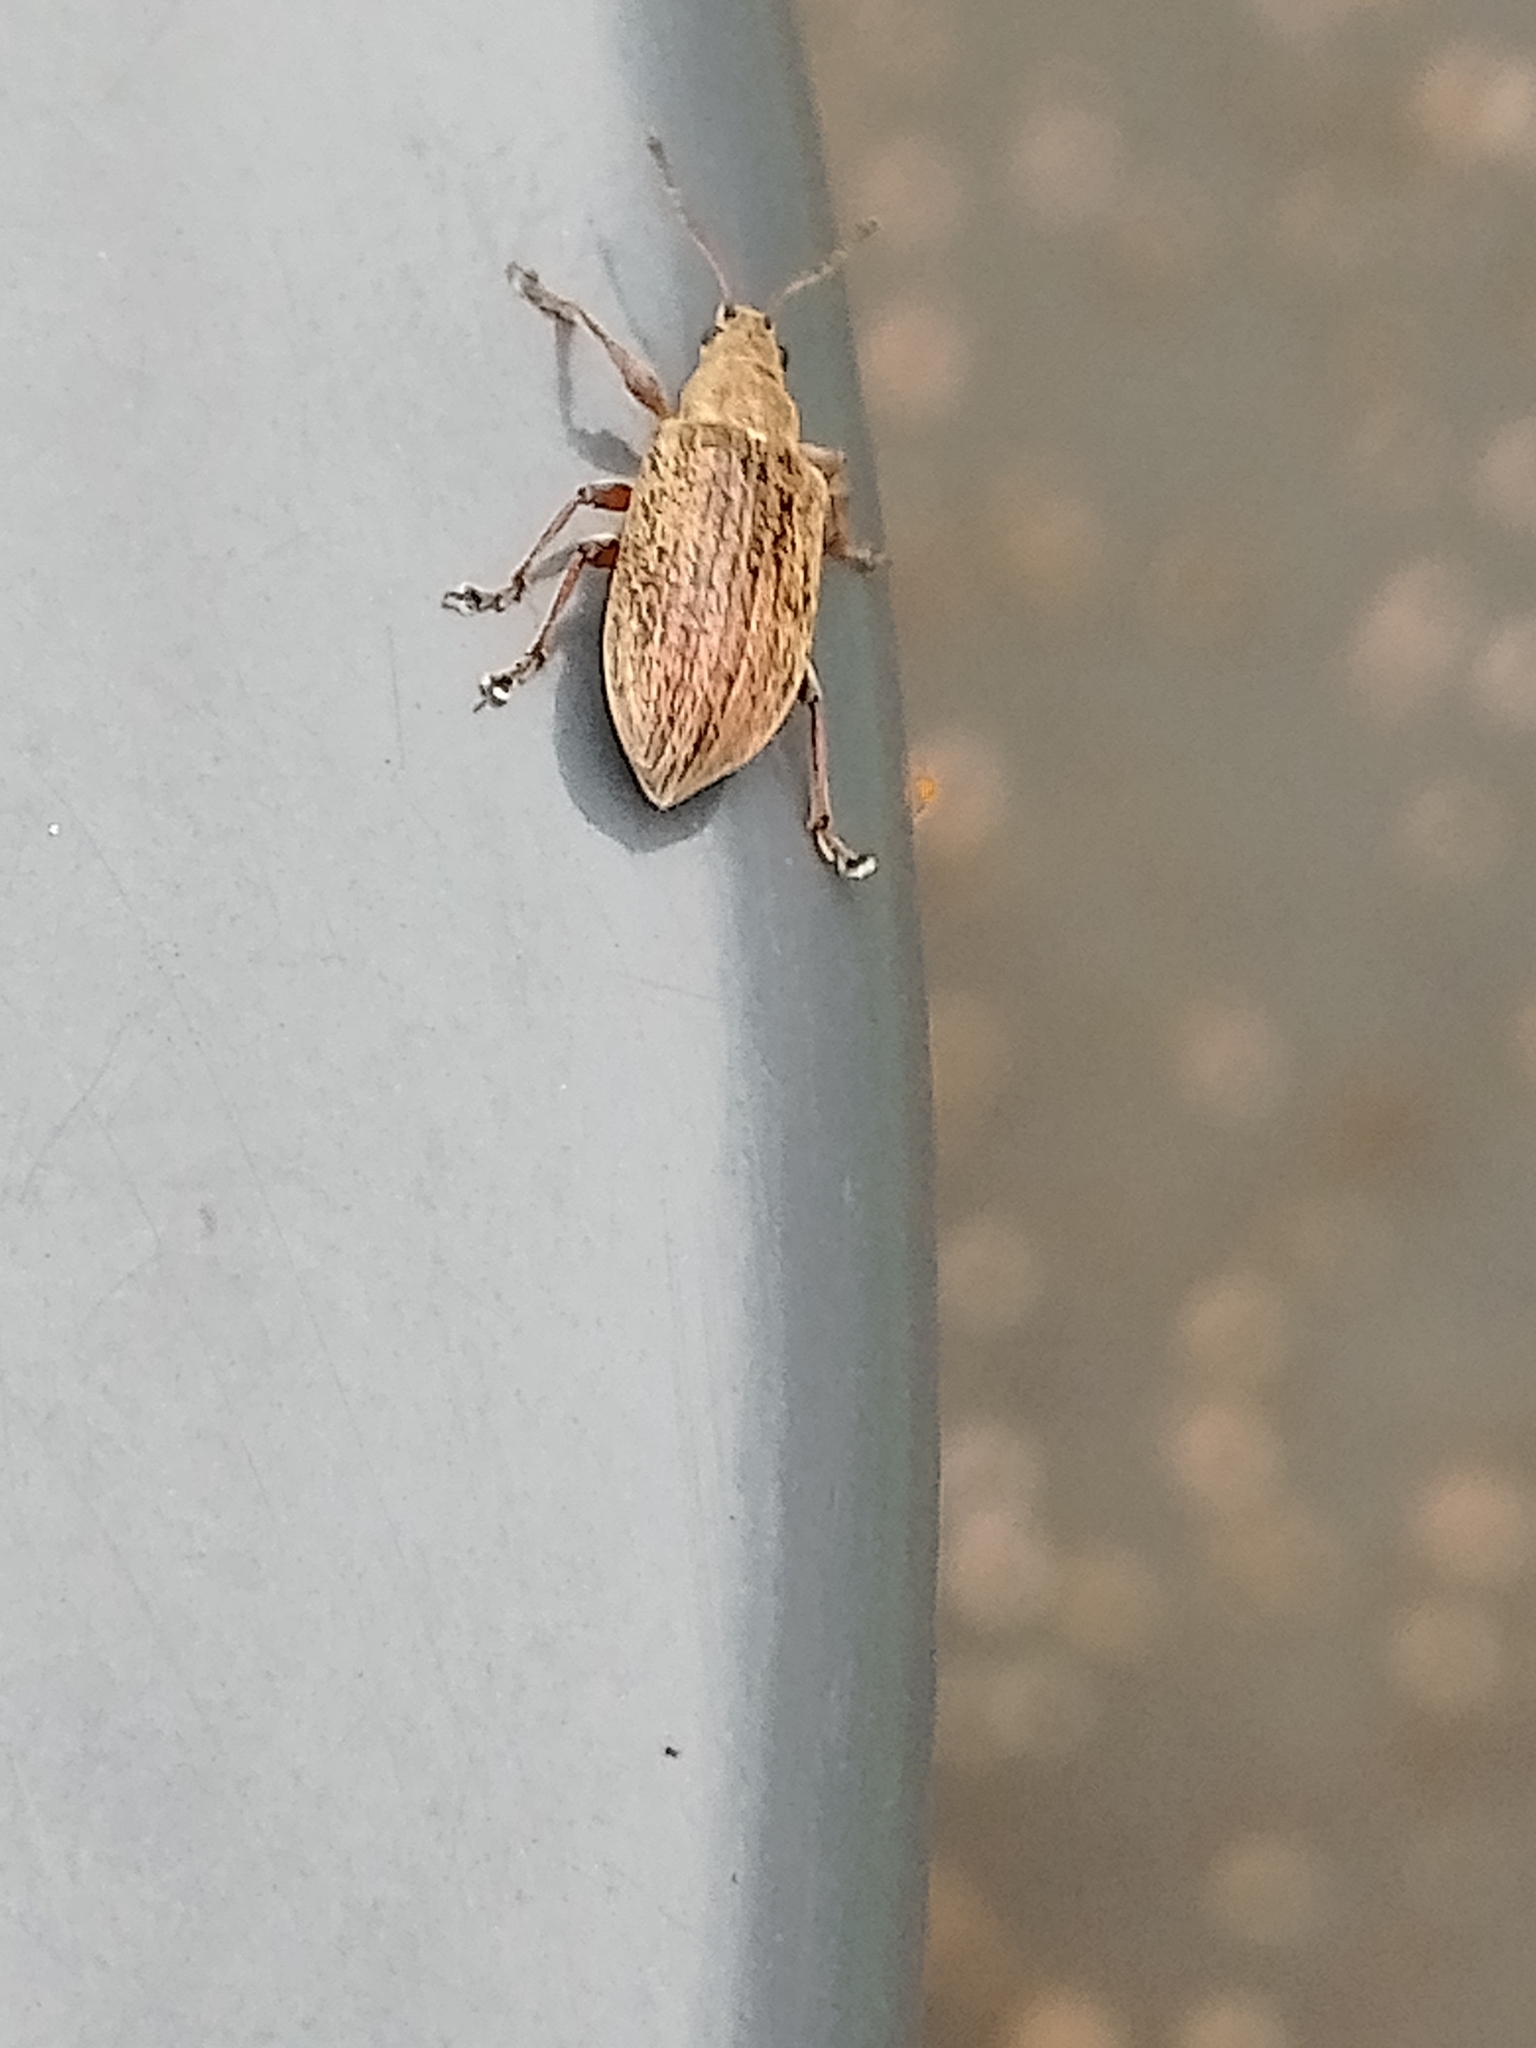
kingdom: Animalia
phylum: Arthropoda
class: Insecta
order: Coleoptera
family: Curculionidae
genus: Phyllobius
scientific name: Phyllobius pyri
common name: Common leaf weevil
